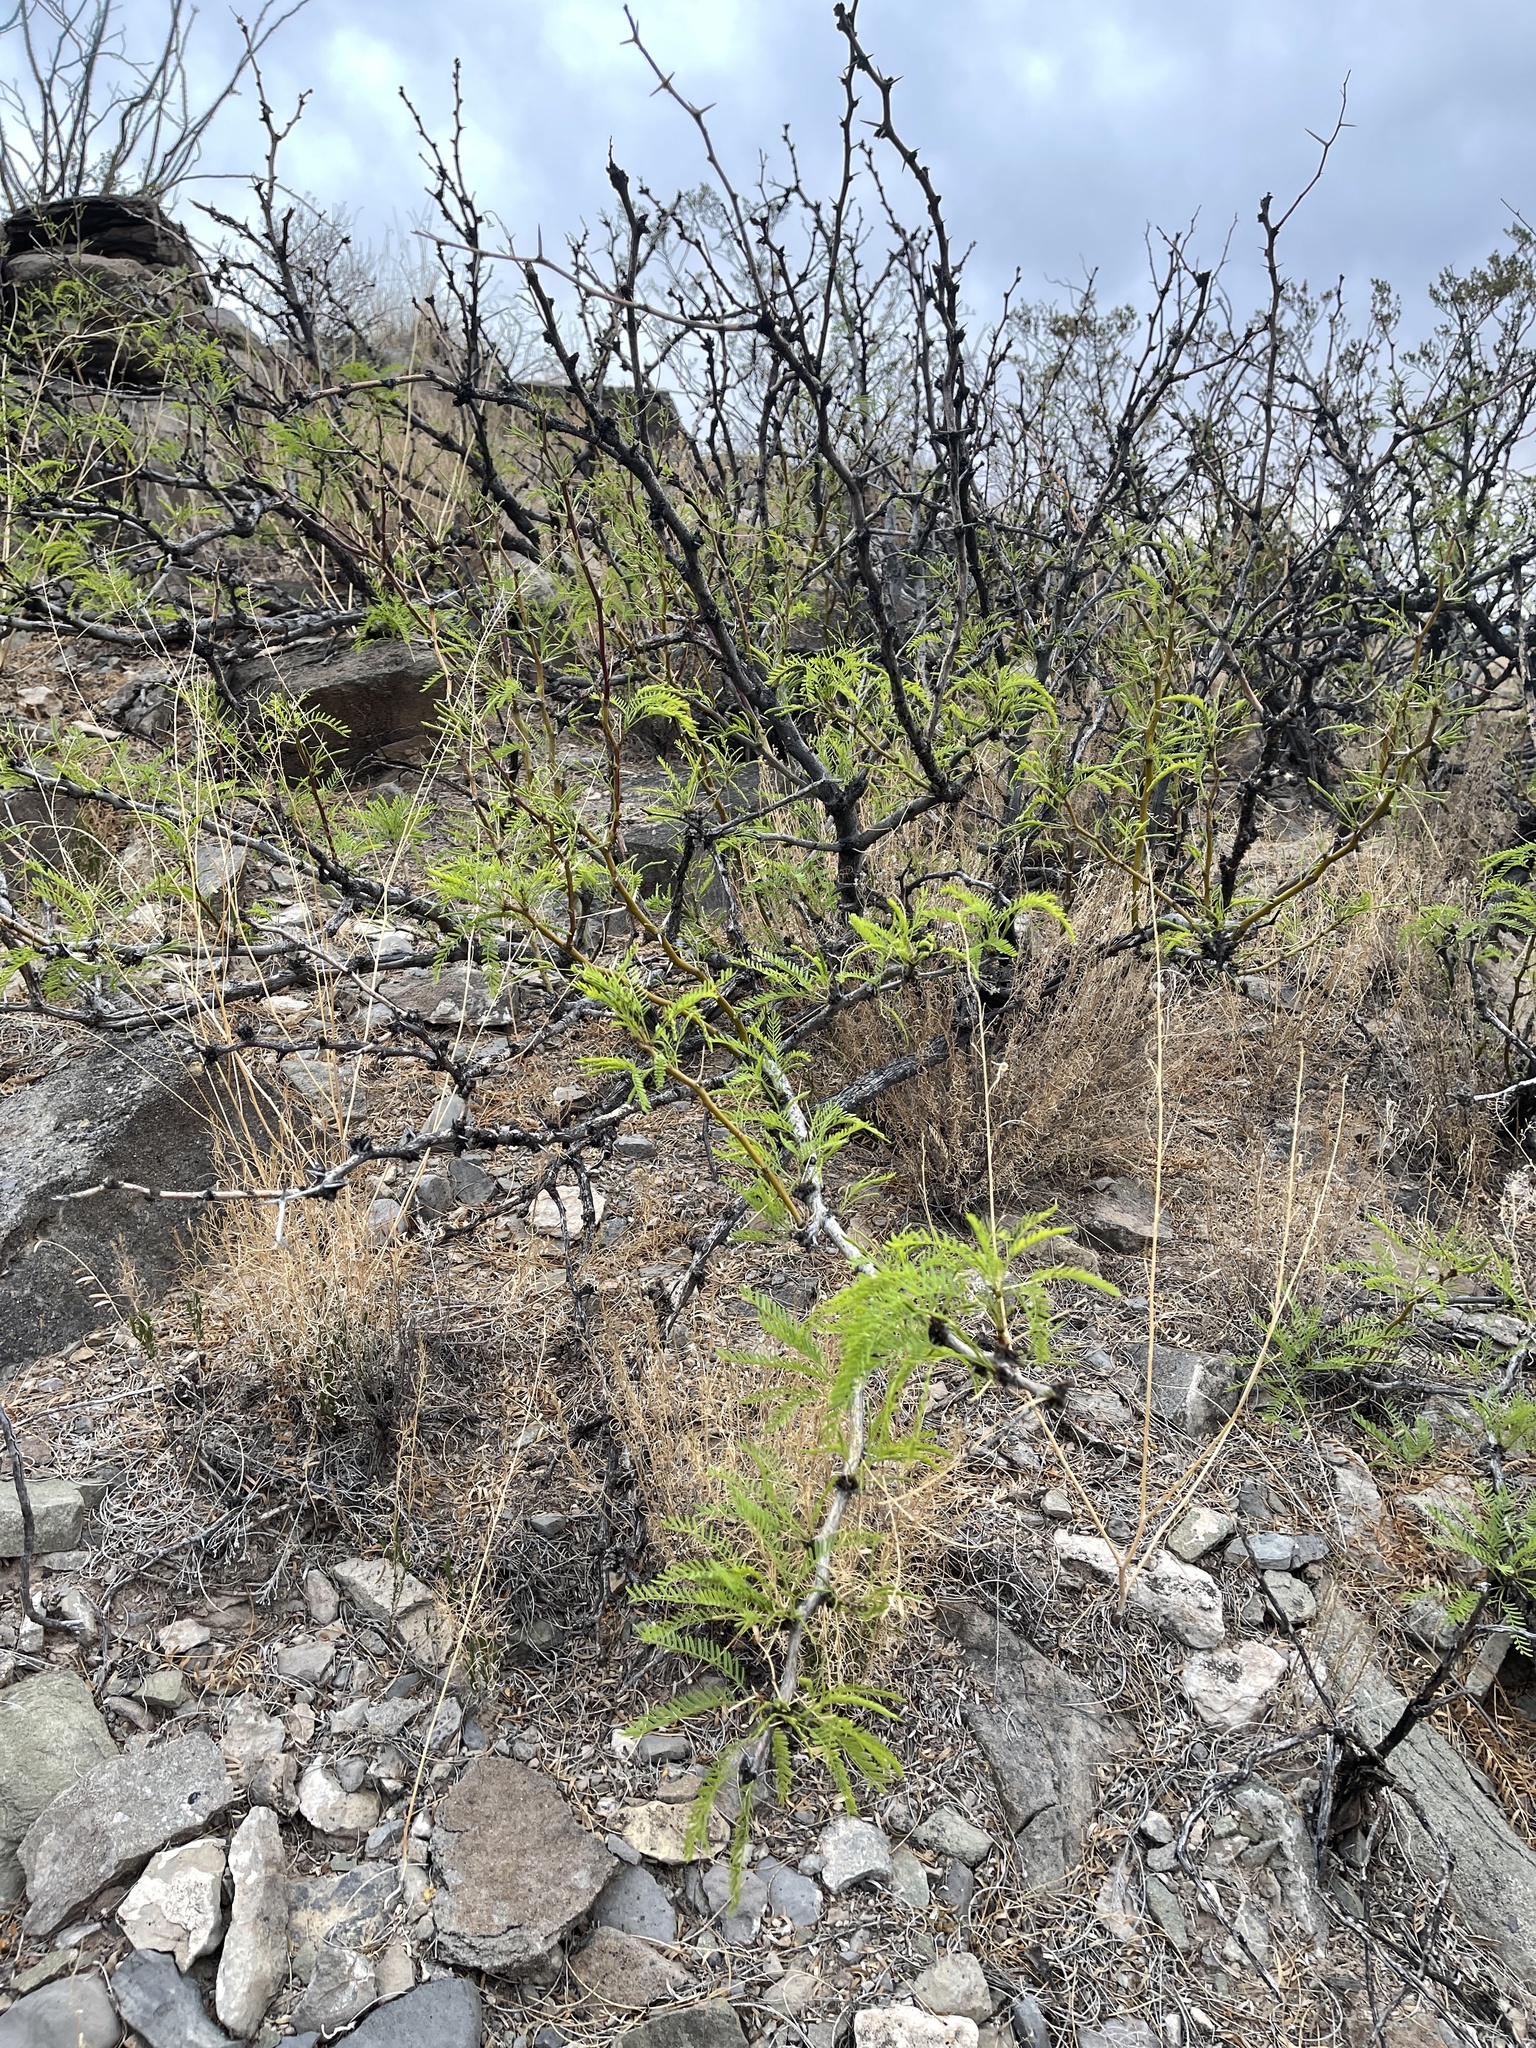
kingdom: Plantae
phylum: Tracheophyta
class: Magnoliopsida
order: Fabales
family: Fabaceae
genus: Prosopis
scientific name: Prosopis glandulosa
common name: Honey mesquite
